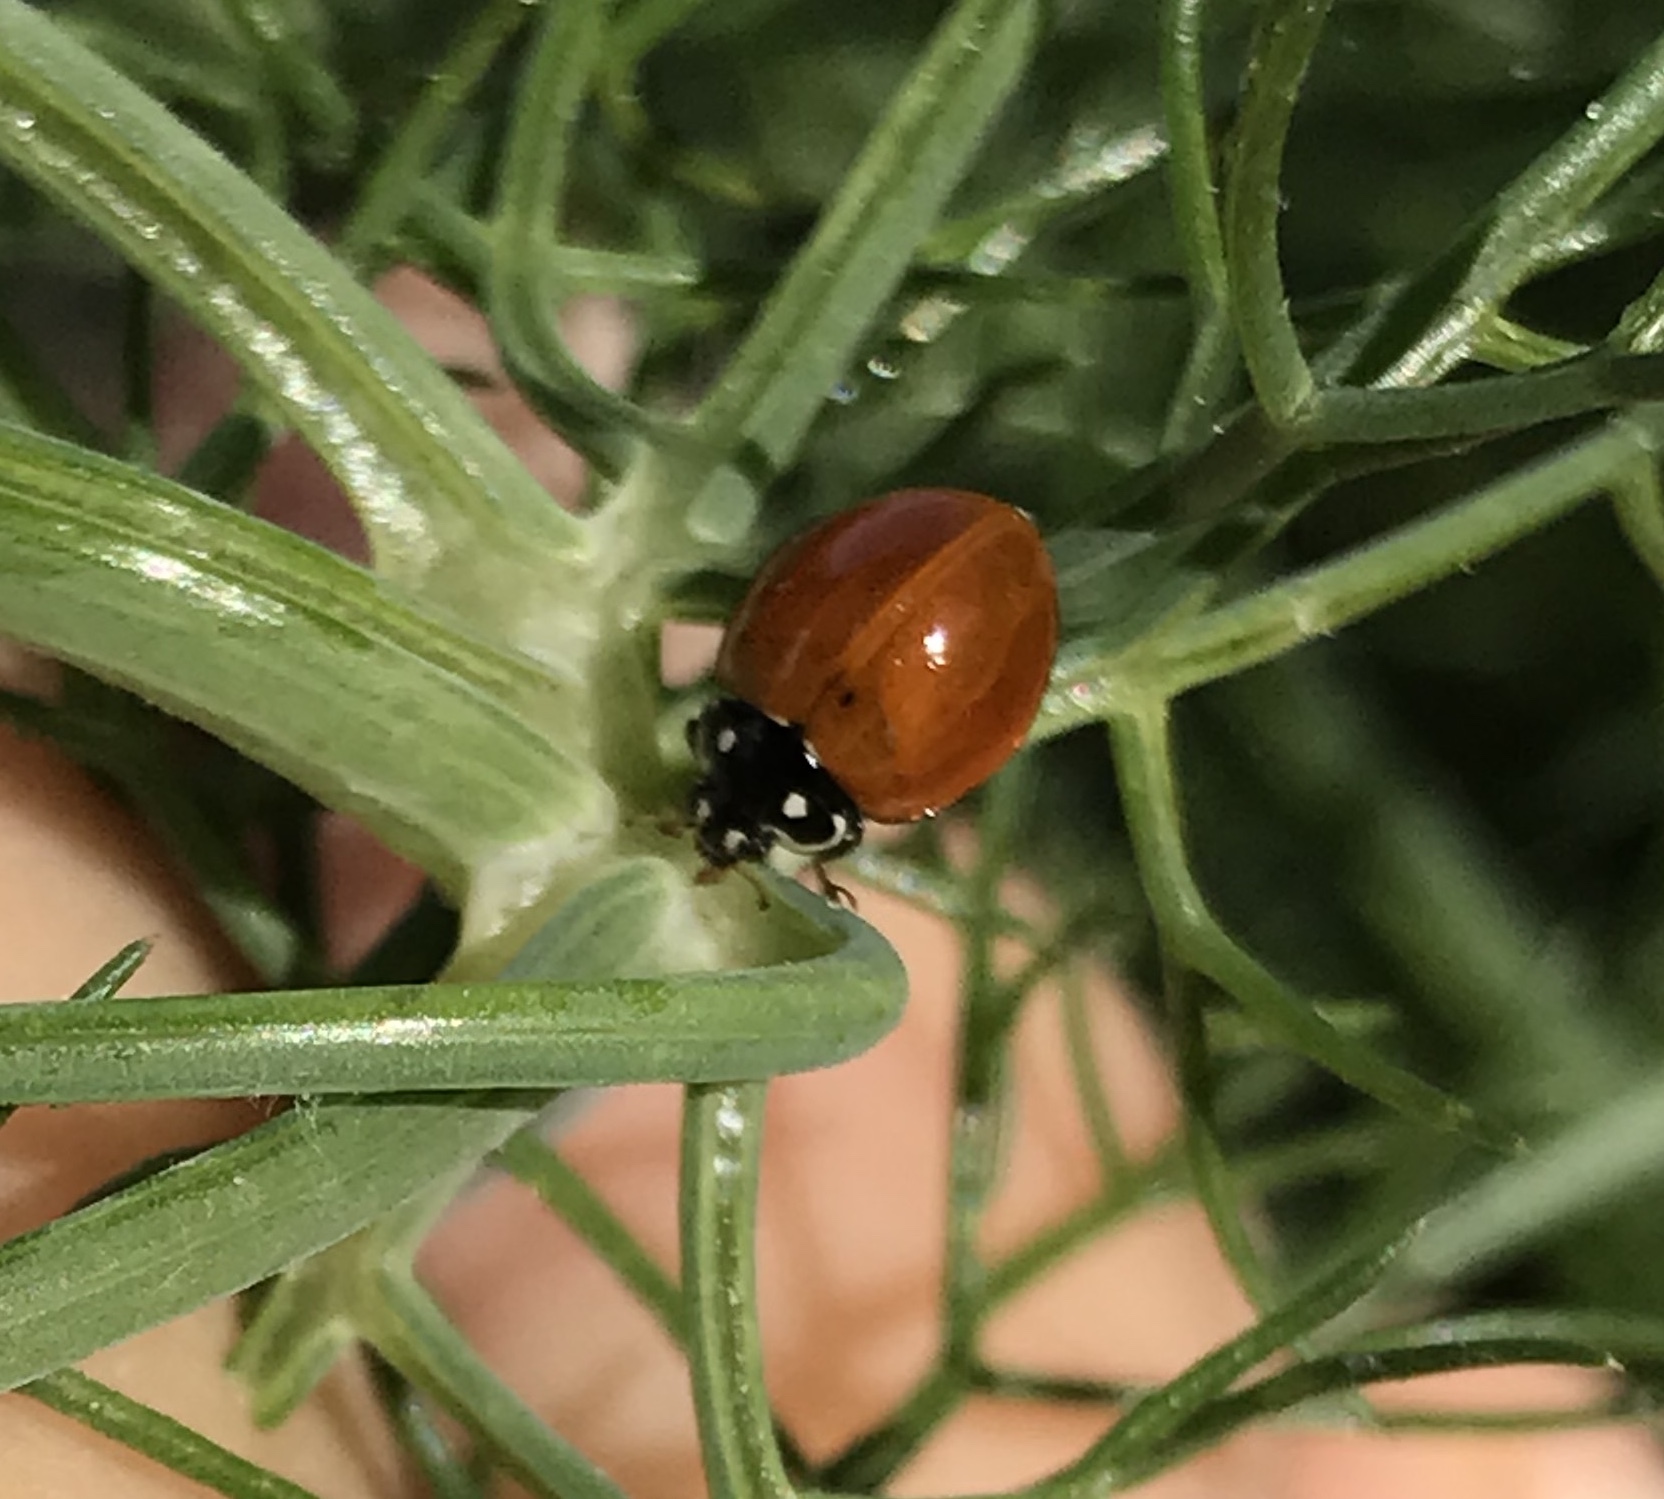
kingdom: Animalia
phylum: Arthropoda
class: Insecta
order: Coleoptera
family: Coccinellidae
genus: Cycloneda
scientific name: Cycloneda sanguinea
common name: Ladybird beetle
